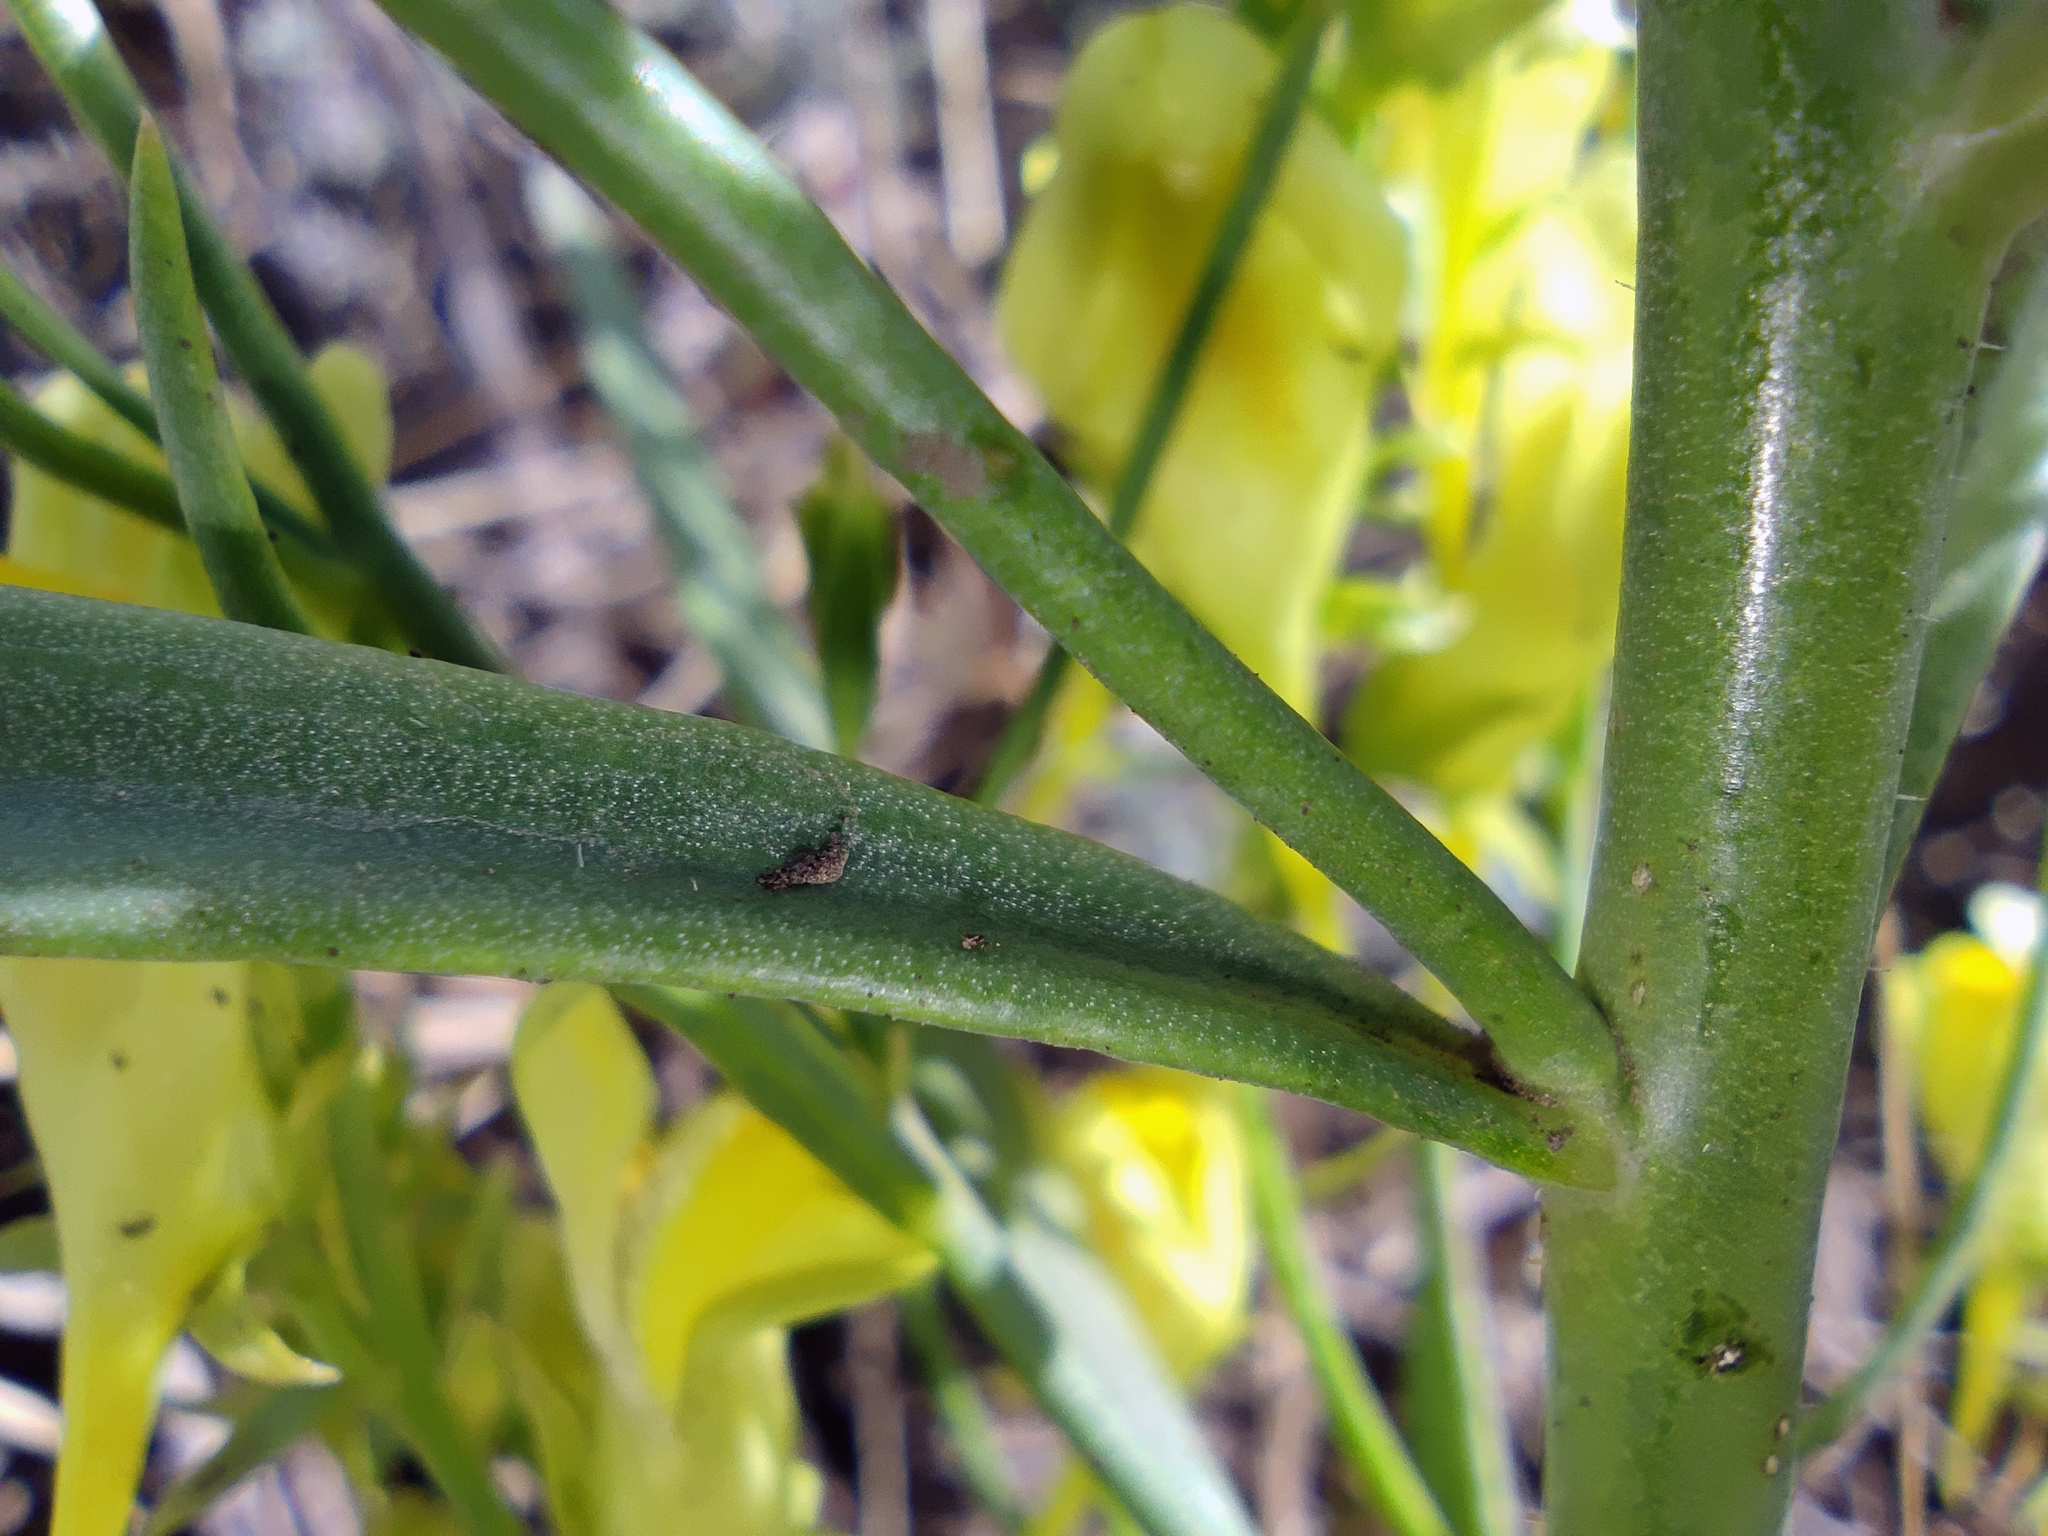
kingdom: Plantae
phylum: Tracheophyta
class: Magnoliopsida
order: Lamiales
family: Plantaginaceae
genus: Linaria
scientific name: Linaria vulgaris
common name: Butter and eggs
